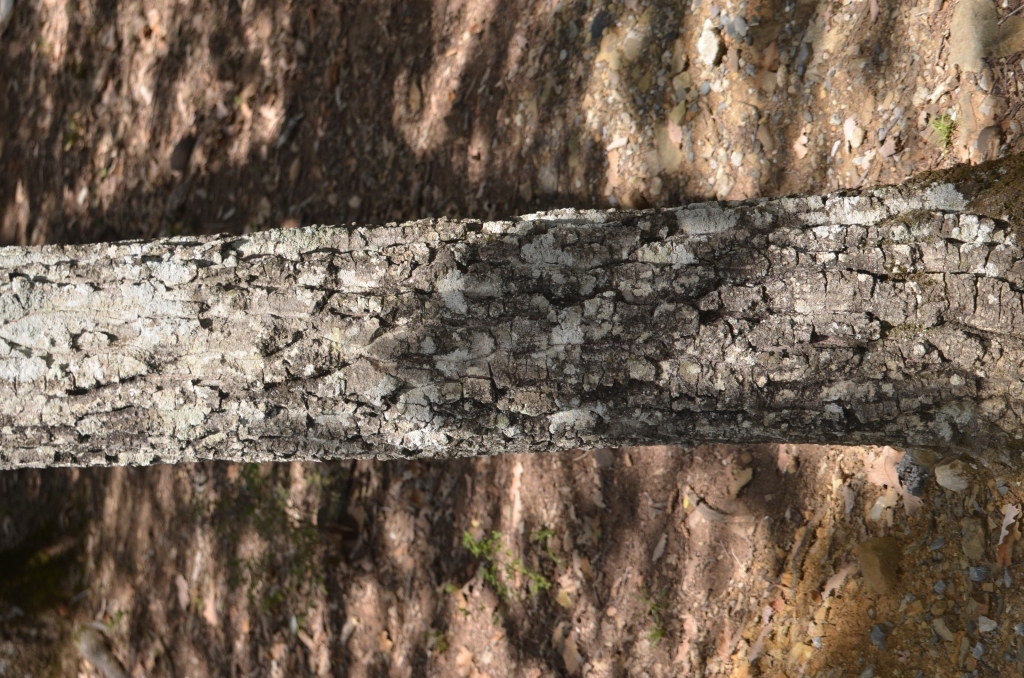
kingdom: Plantae
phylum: Tracheophyta
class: Magnoliopsida
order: Fagales
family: Fagaceae
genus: Quercus
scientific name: Quercus afares
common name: African oak
